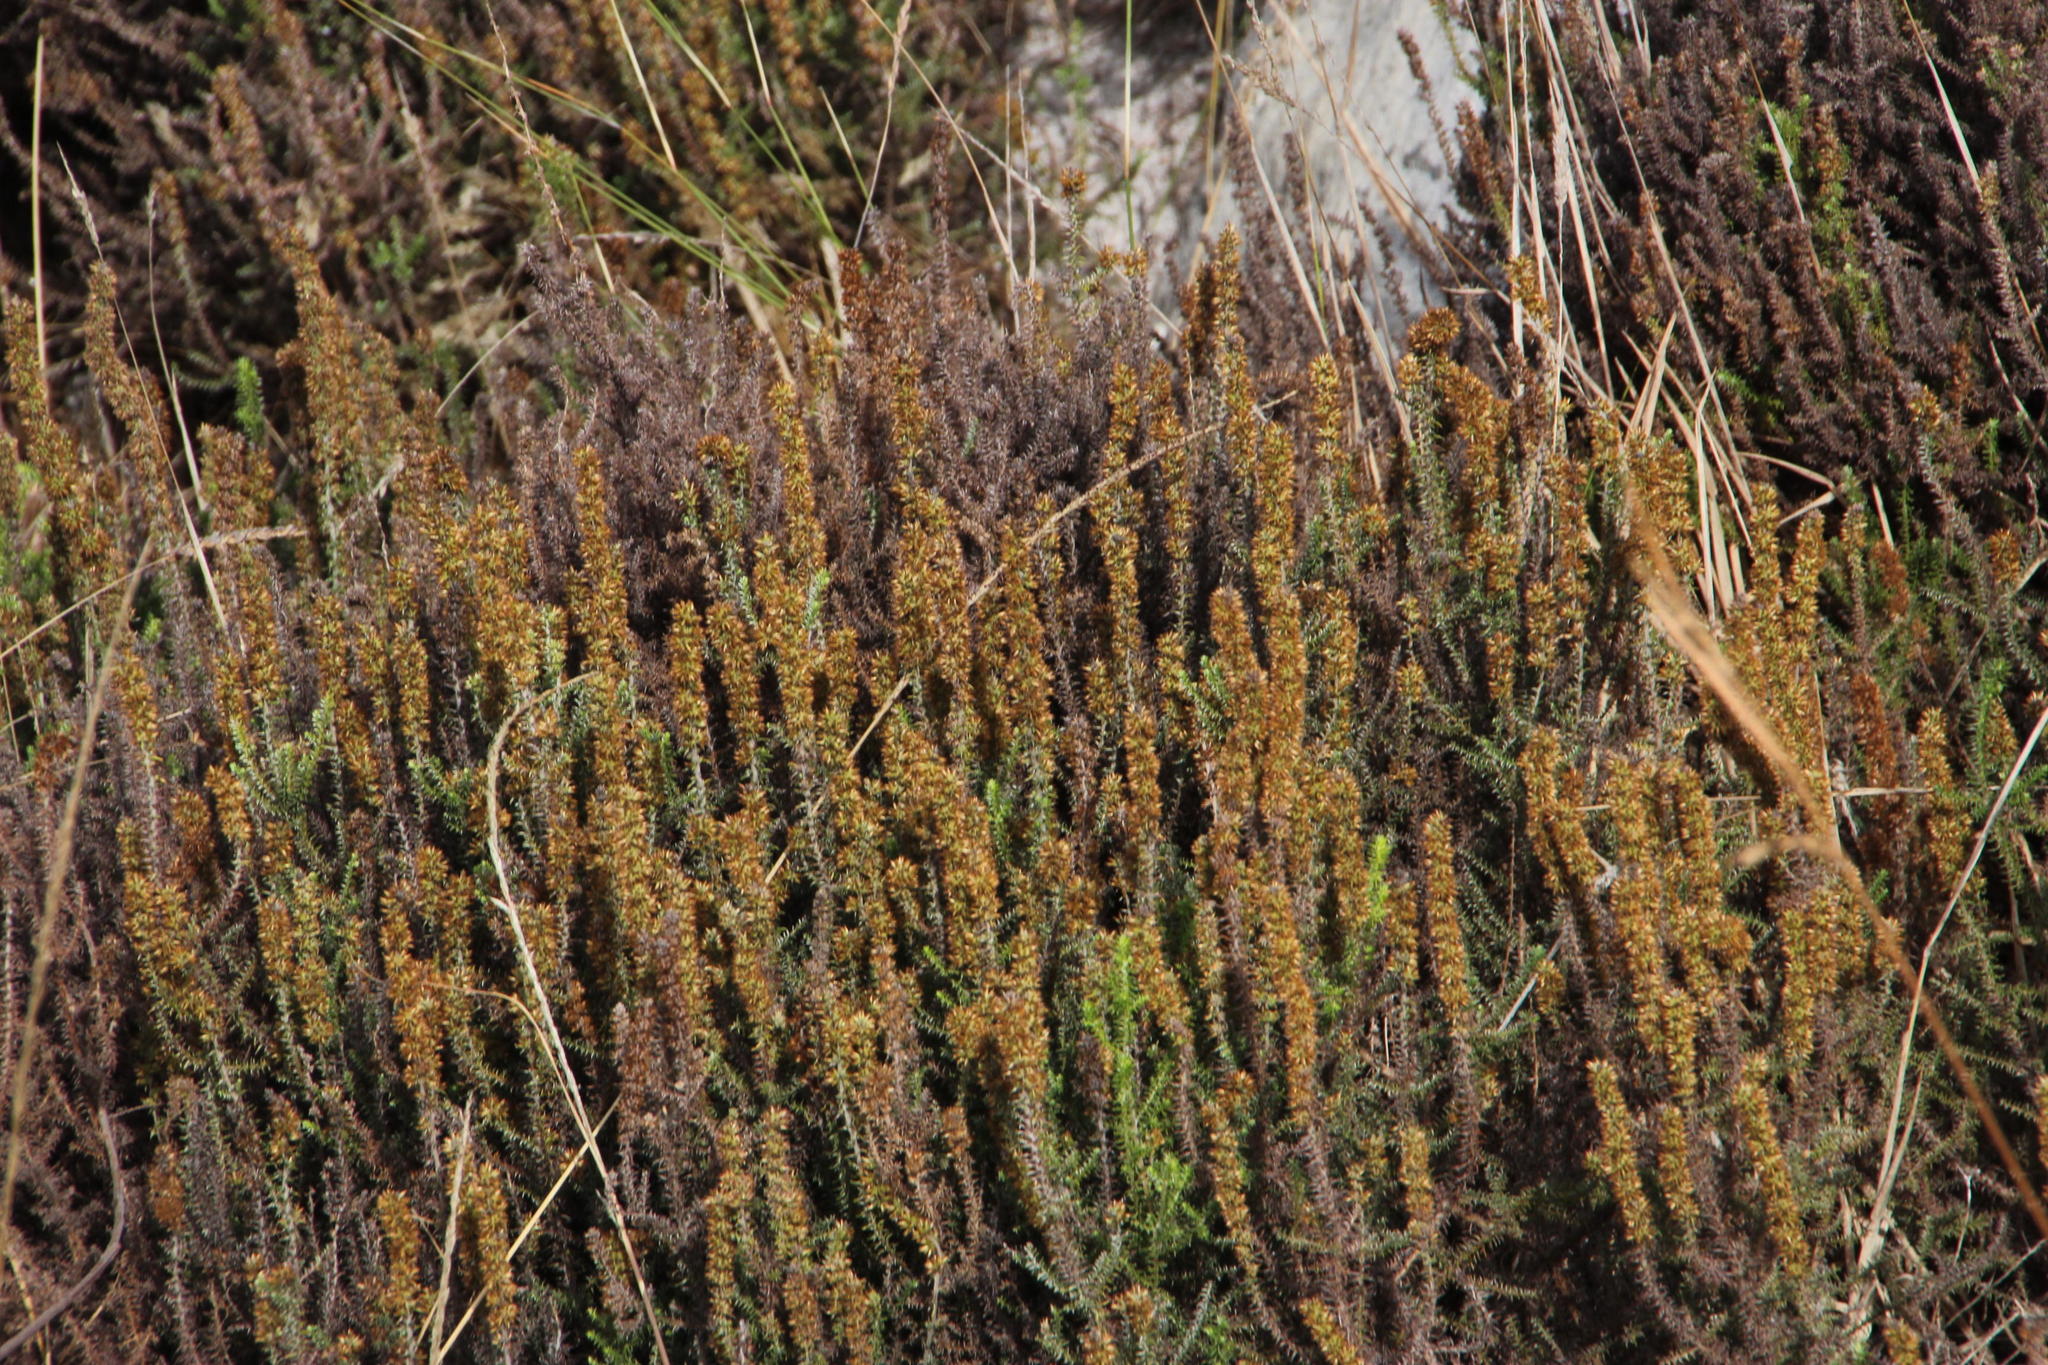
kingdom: Plantae
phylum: Tracheophyta
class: Magnoliopsida
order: Asterales
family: Asteraceae
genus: Seriphium
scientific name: Seriphium cinereum
